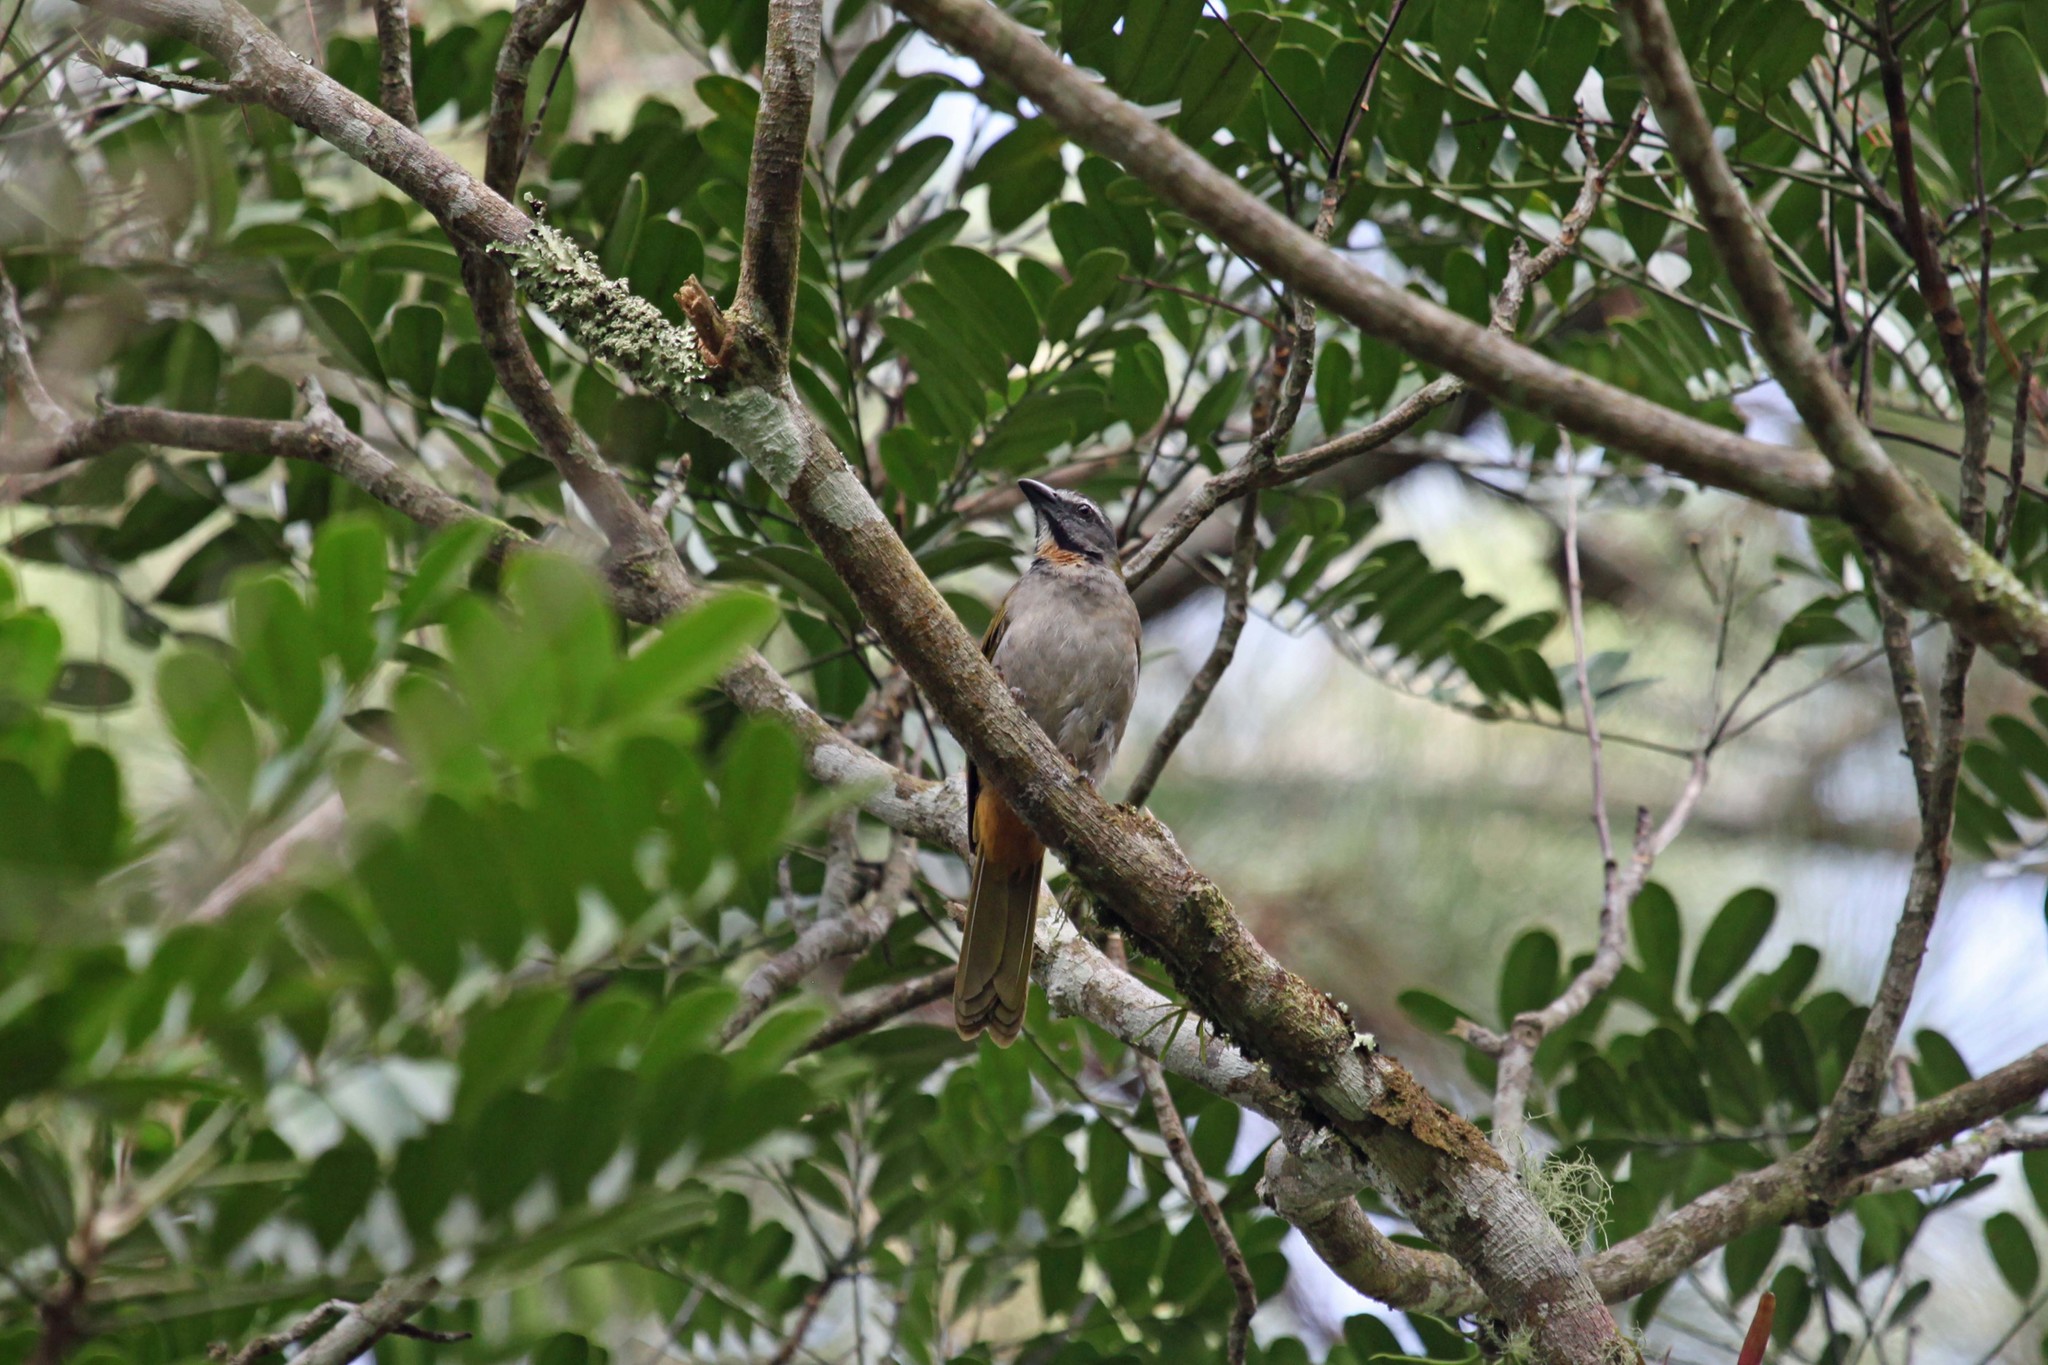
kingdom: Animalia
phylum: Chordata
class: Aves
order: Passeriformes
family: Thraupidae
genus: Saltator
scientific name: Saltator maximus
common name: Buff-throated saltator
